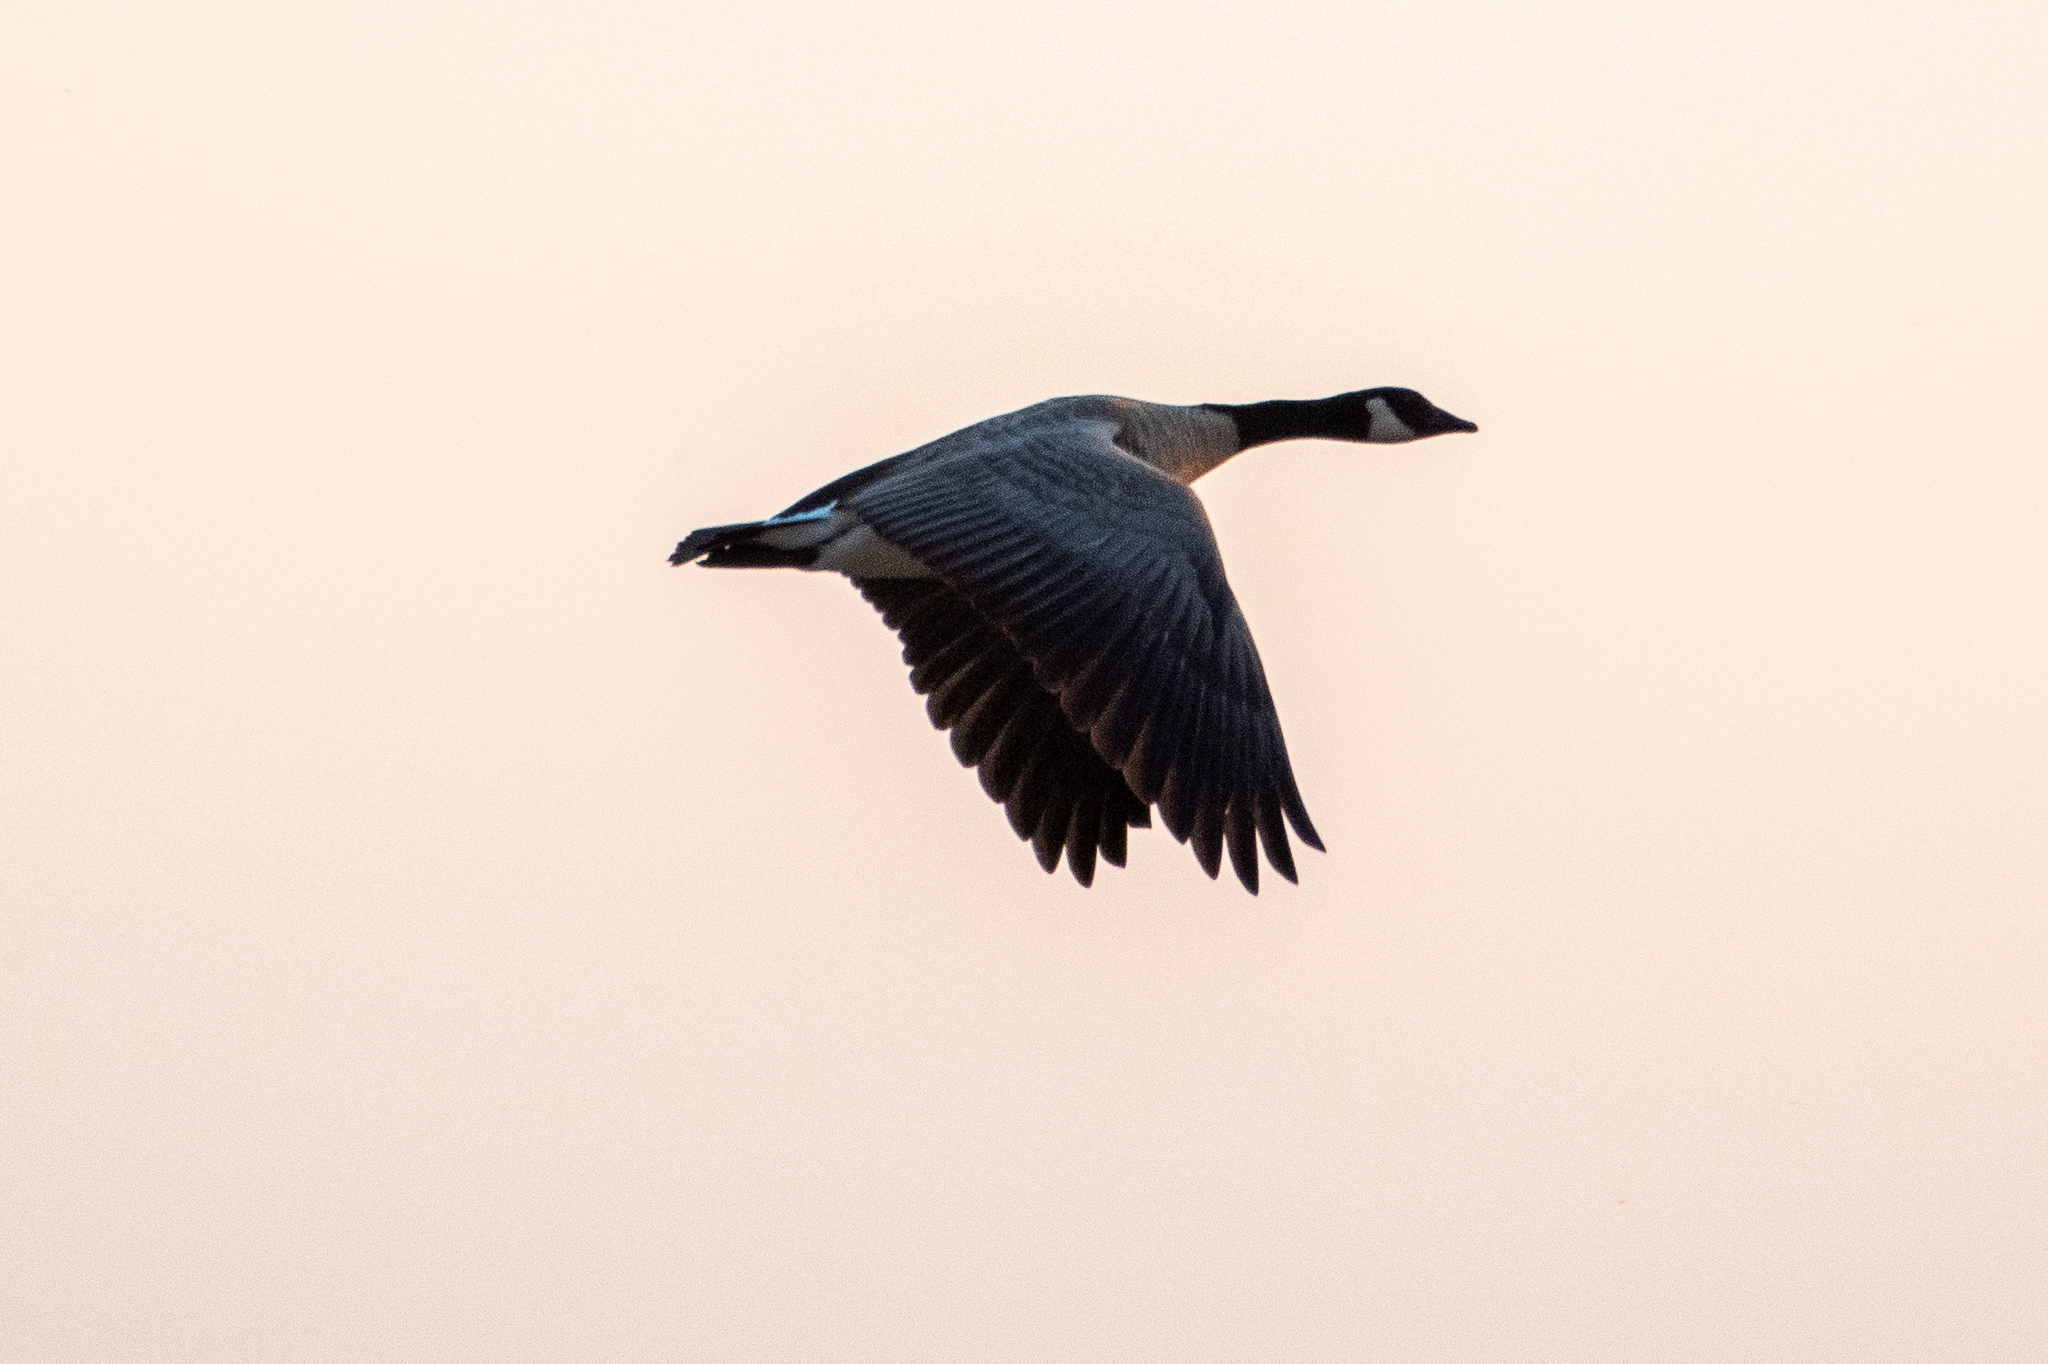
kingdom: Animalia
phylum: Chordata
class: Aves
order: Anseriformes
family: Anatidae
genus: Branta
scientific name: Branta canadensis
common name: Canada goose
